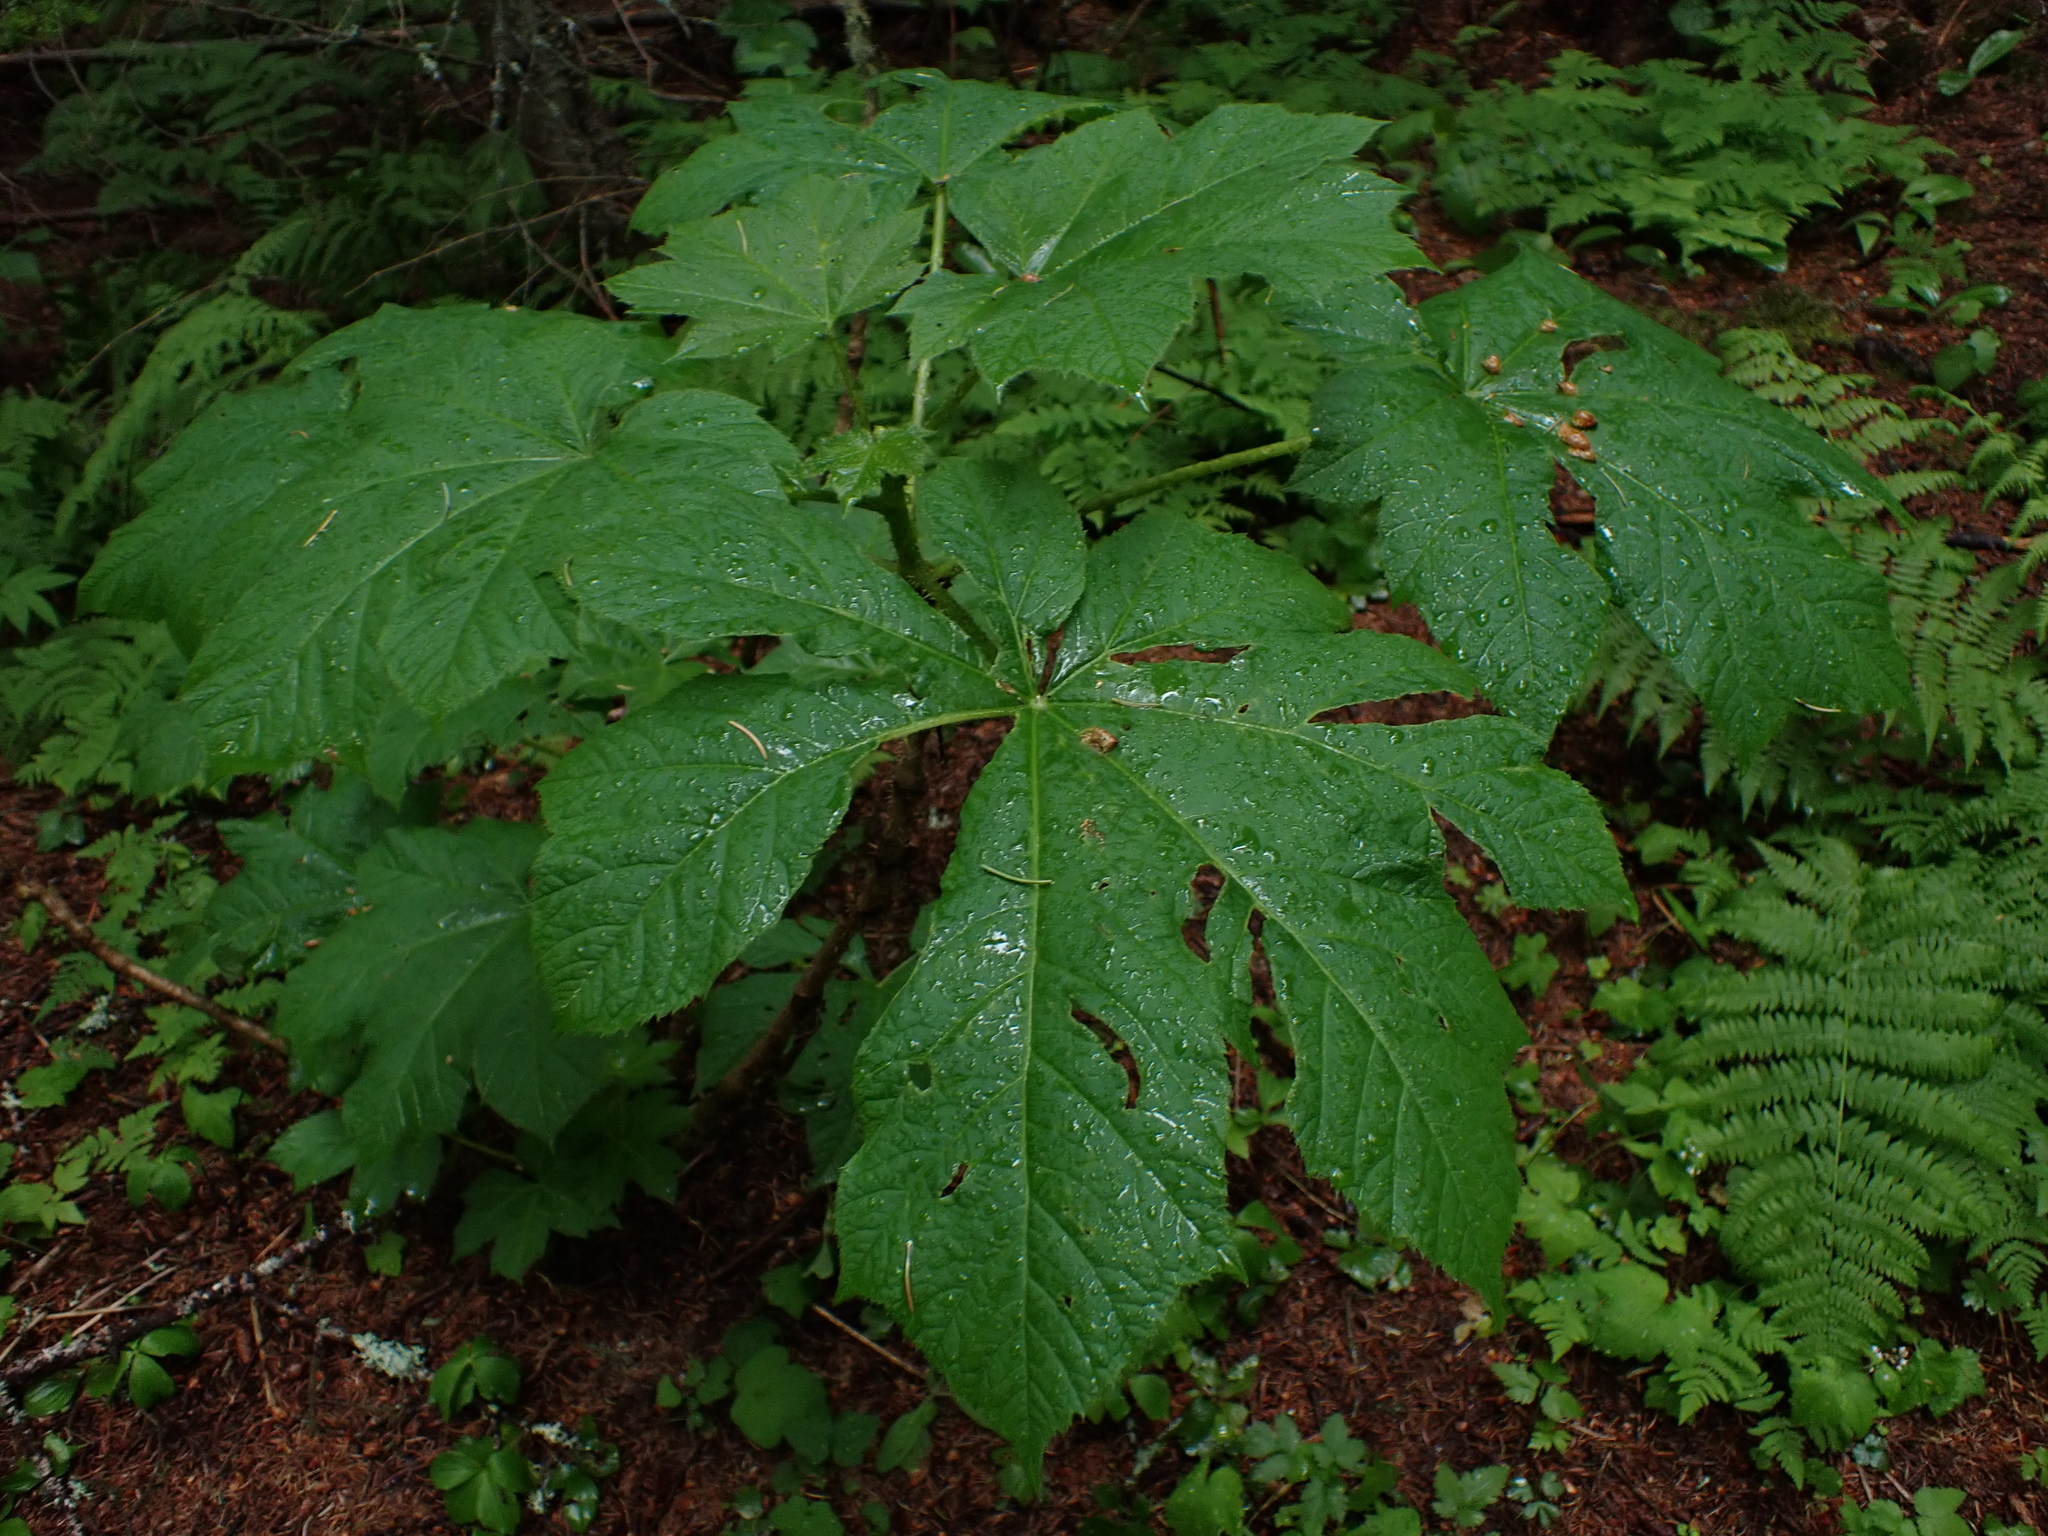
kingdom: Plantae
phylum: Tracheophyta
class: Magnoliopsida
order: Apiales
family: Araliaceae
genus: Oplopanax
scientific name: Oplopanax horridus
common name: Devil's walking-stick
